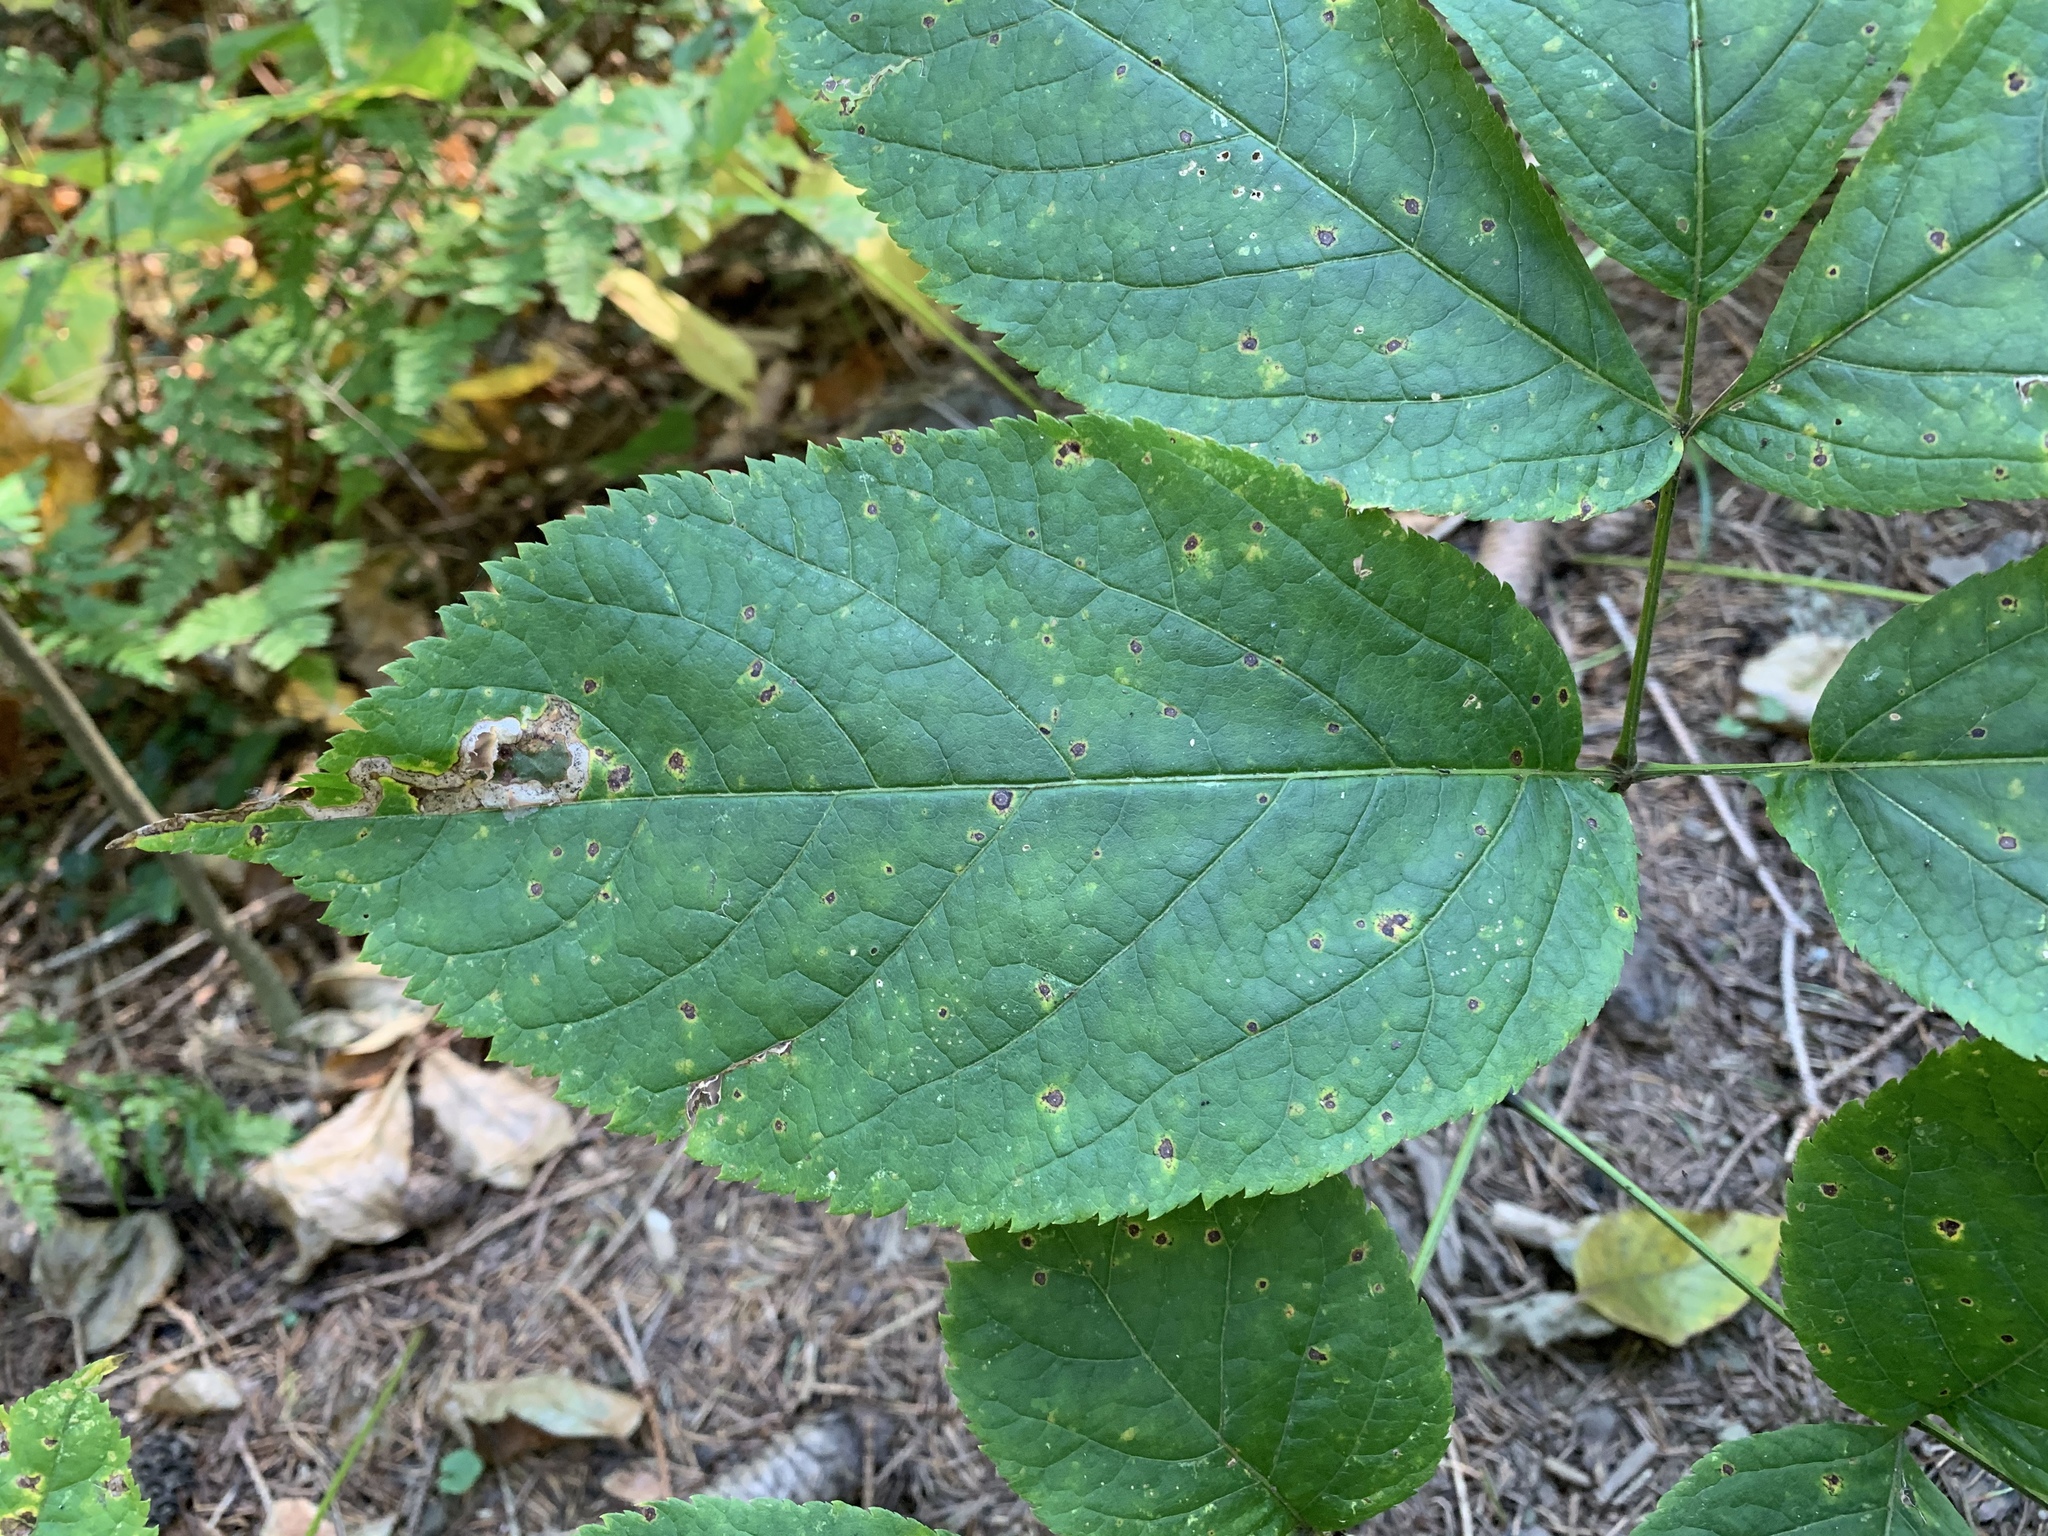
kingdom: Plantae
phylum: Tracheophyta
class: Magnoliopsida
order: Apiales
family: Araliaceae
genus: Aralia
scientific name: Aralia nudicaulis
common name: Wild sarsaparilla
